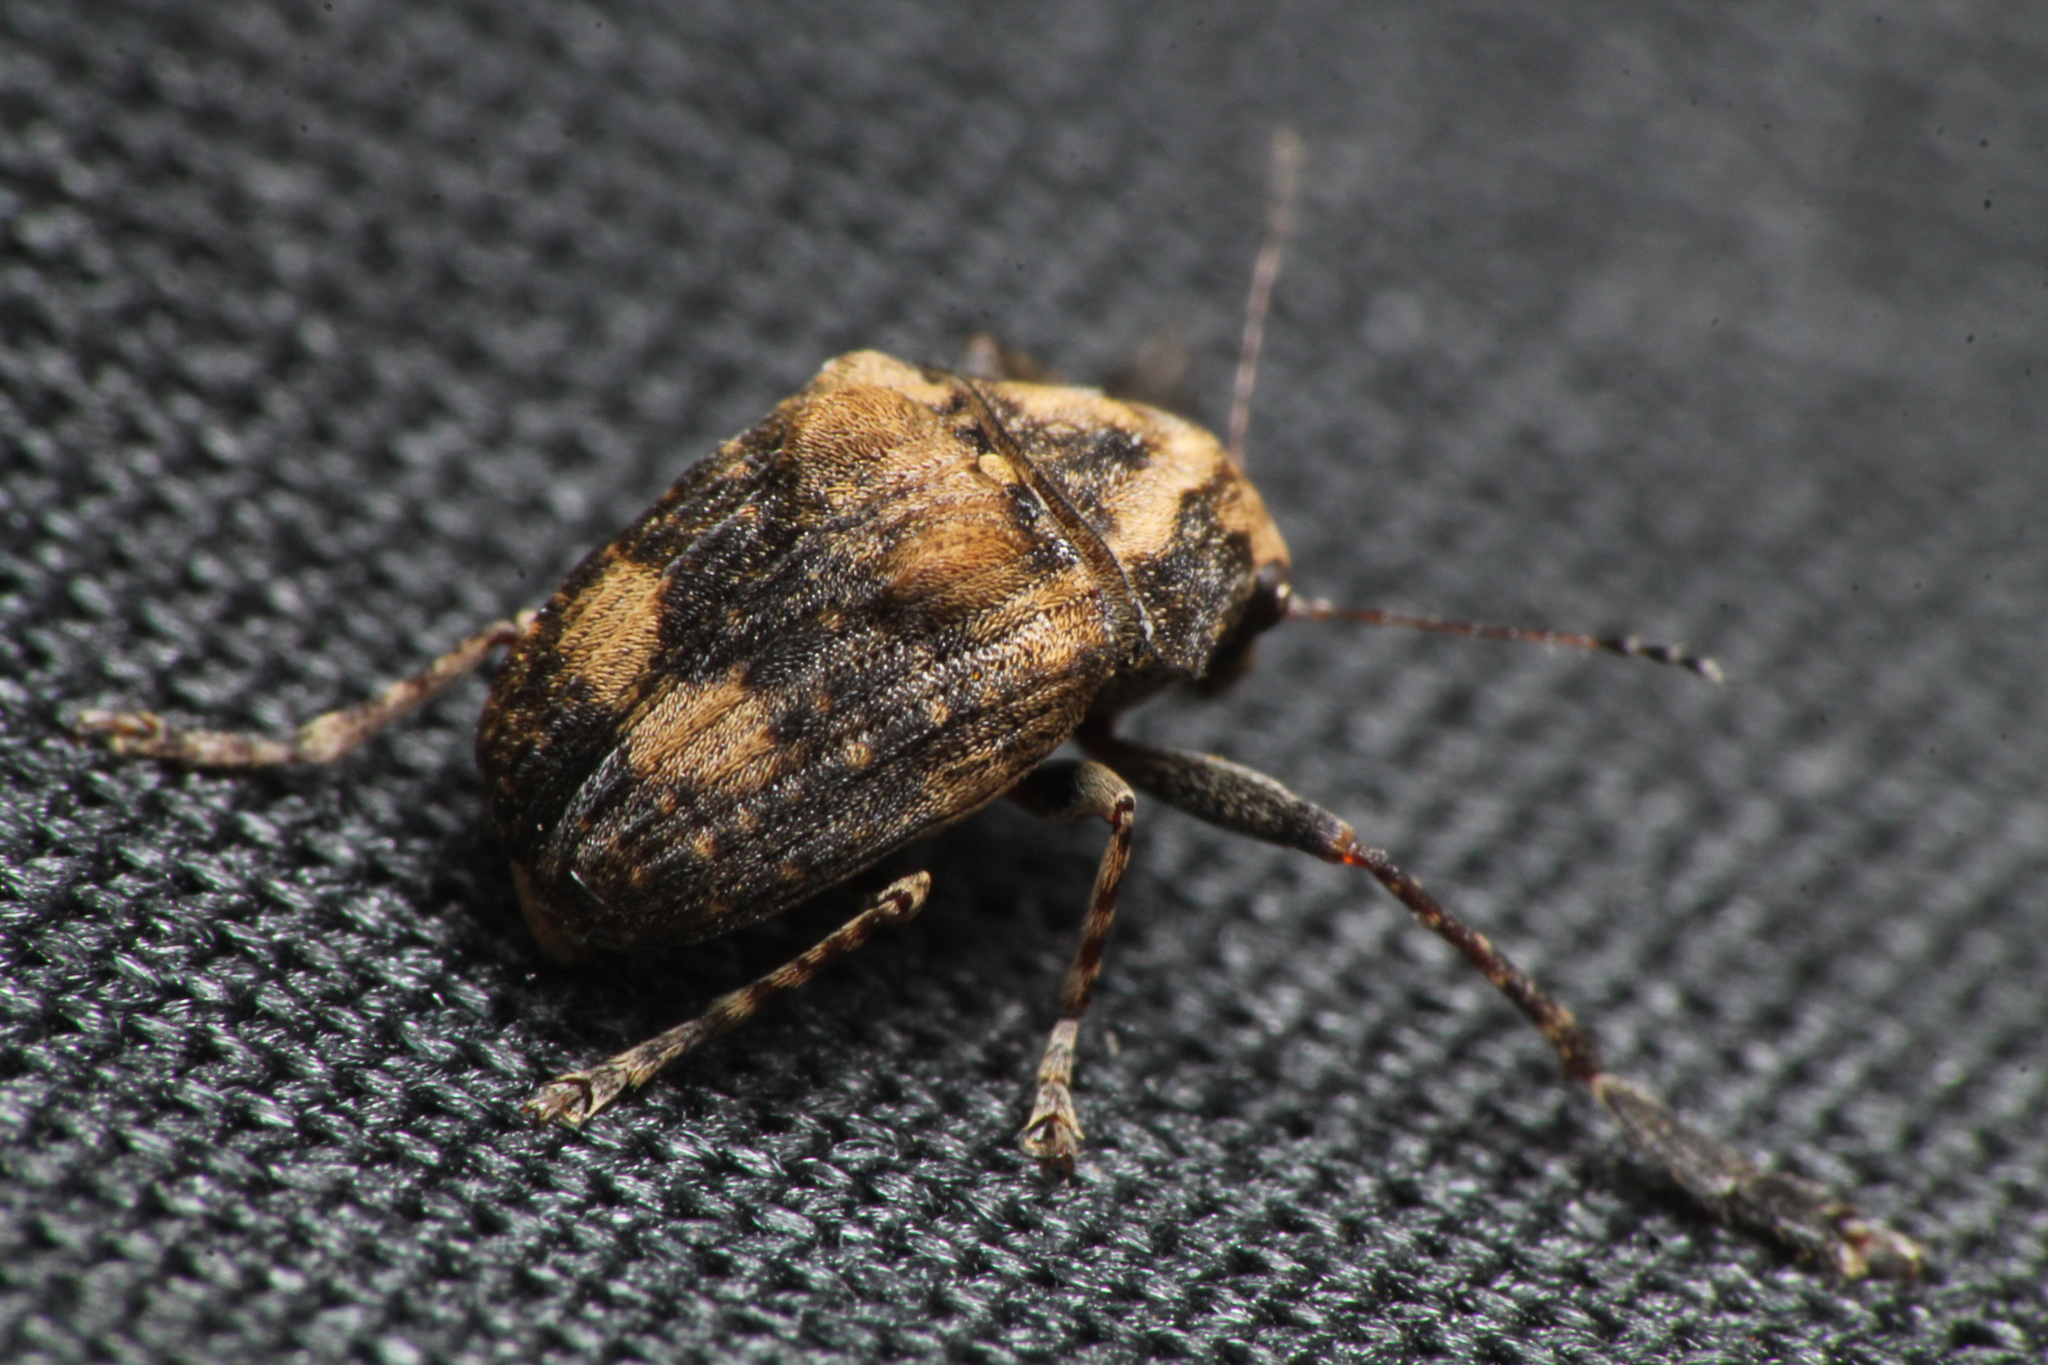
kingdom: Animalia
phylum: Arthropoda
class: Insecta
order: Coleoptera
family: Anthribidae
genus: Araecerus
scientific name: Araecerus
